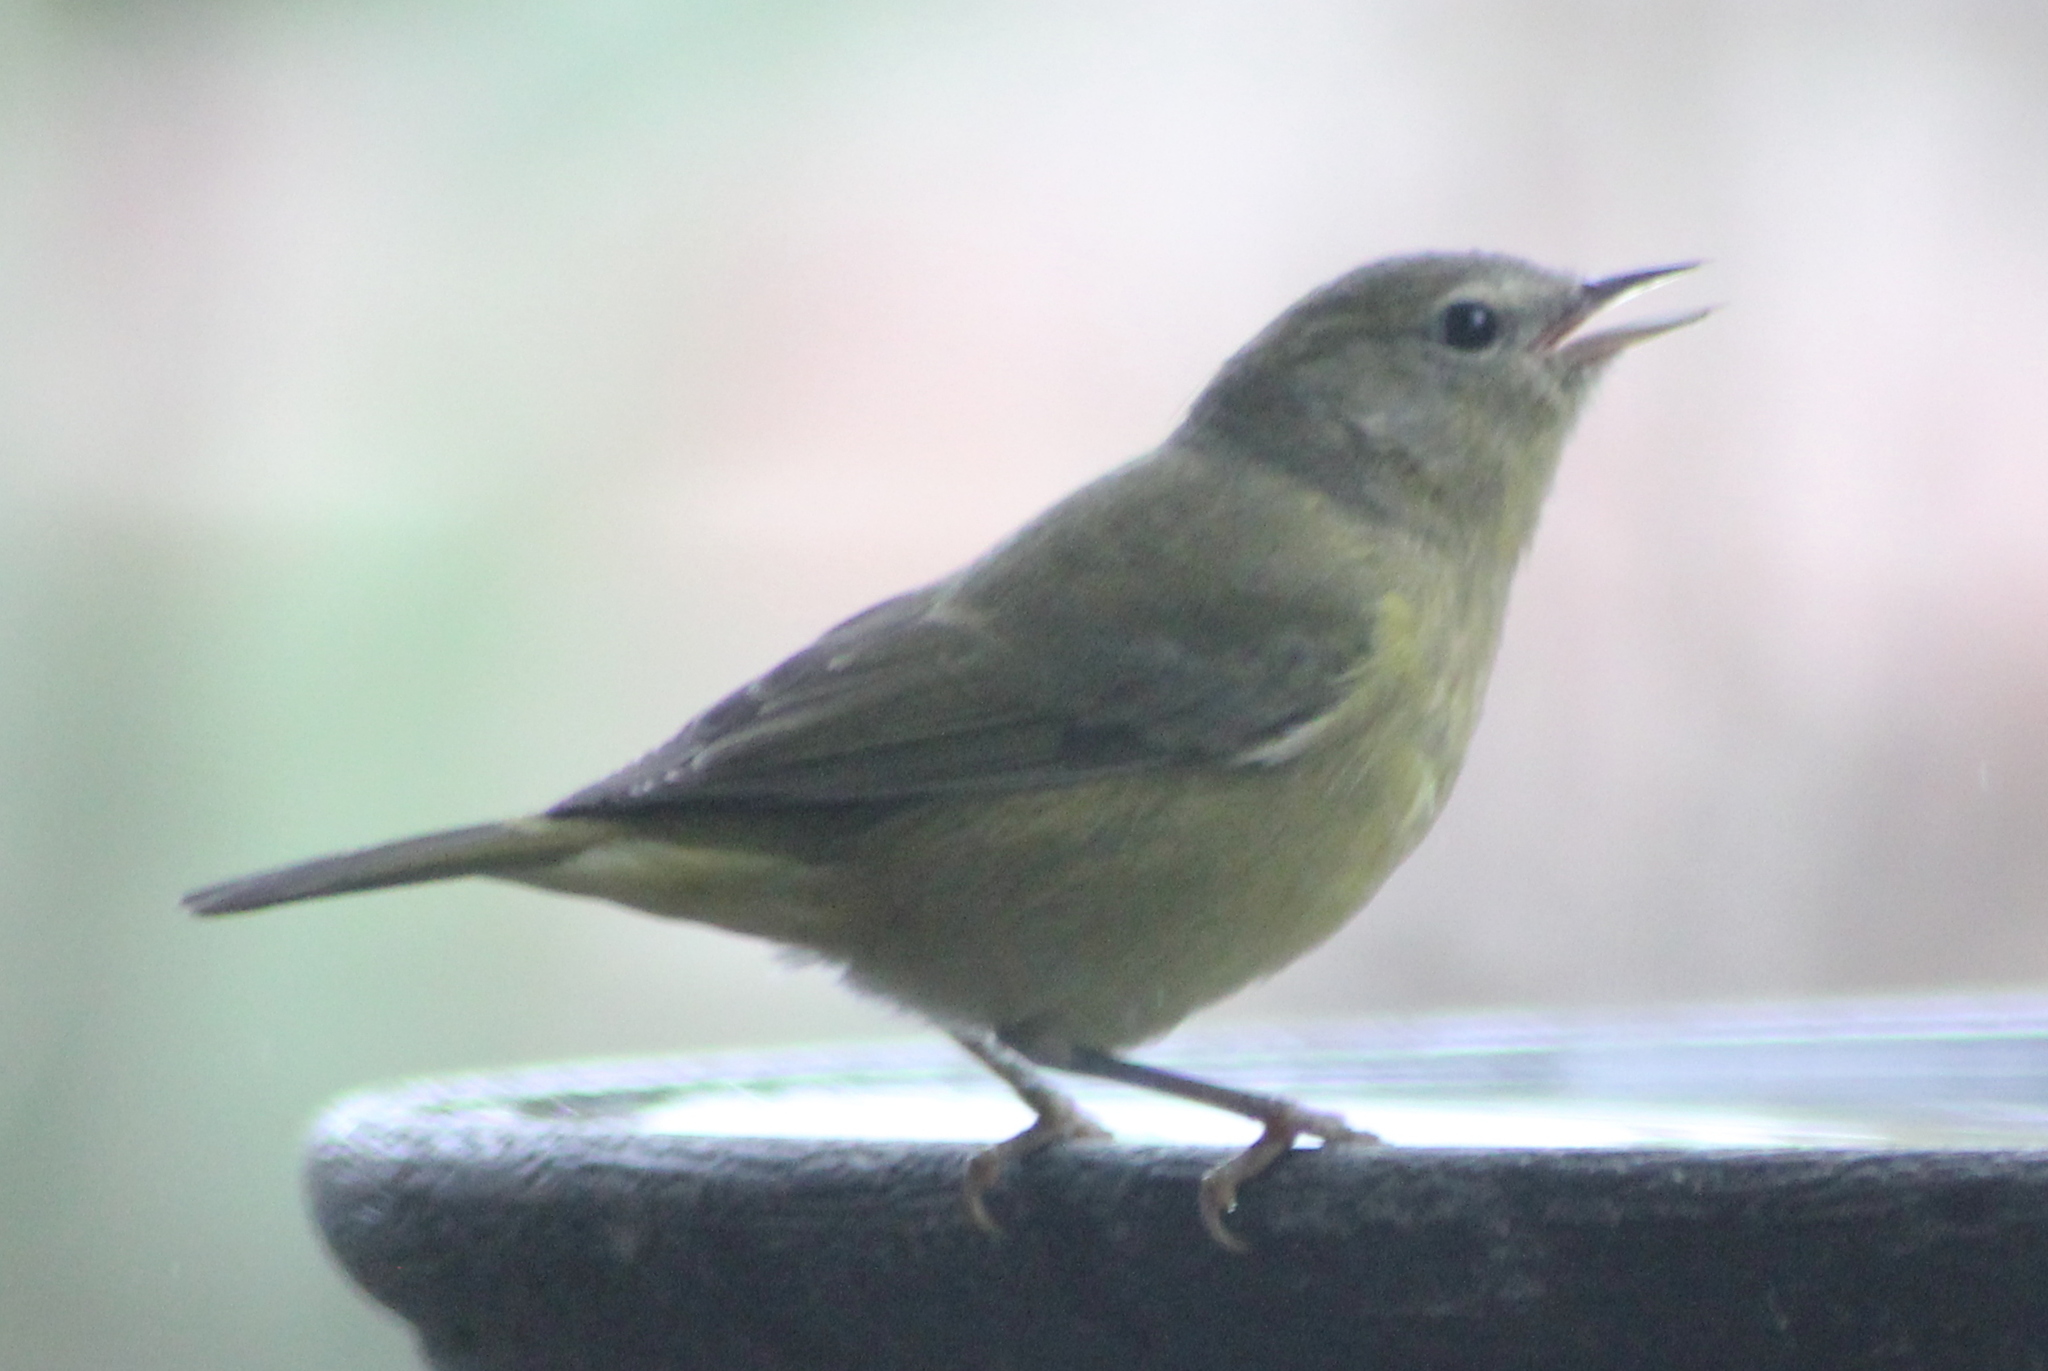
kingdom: Animalia
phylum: Chordata
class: Aves
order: Passeriformes
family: Parulidae
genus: Leiothlypis
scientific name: Leiothlypis celata
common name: Orange-crowned warbler
